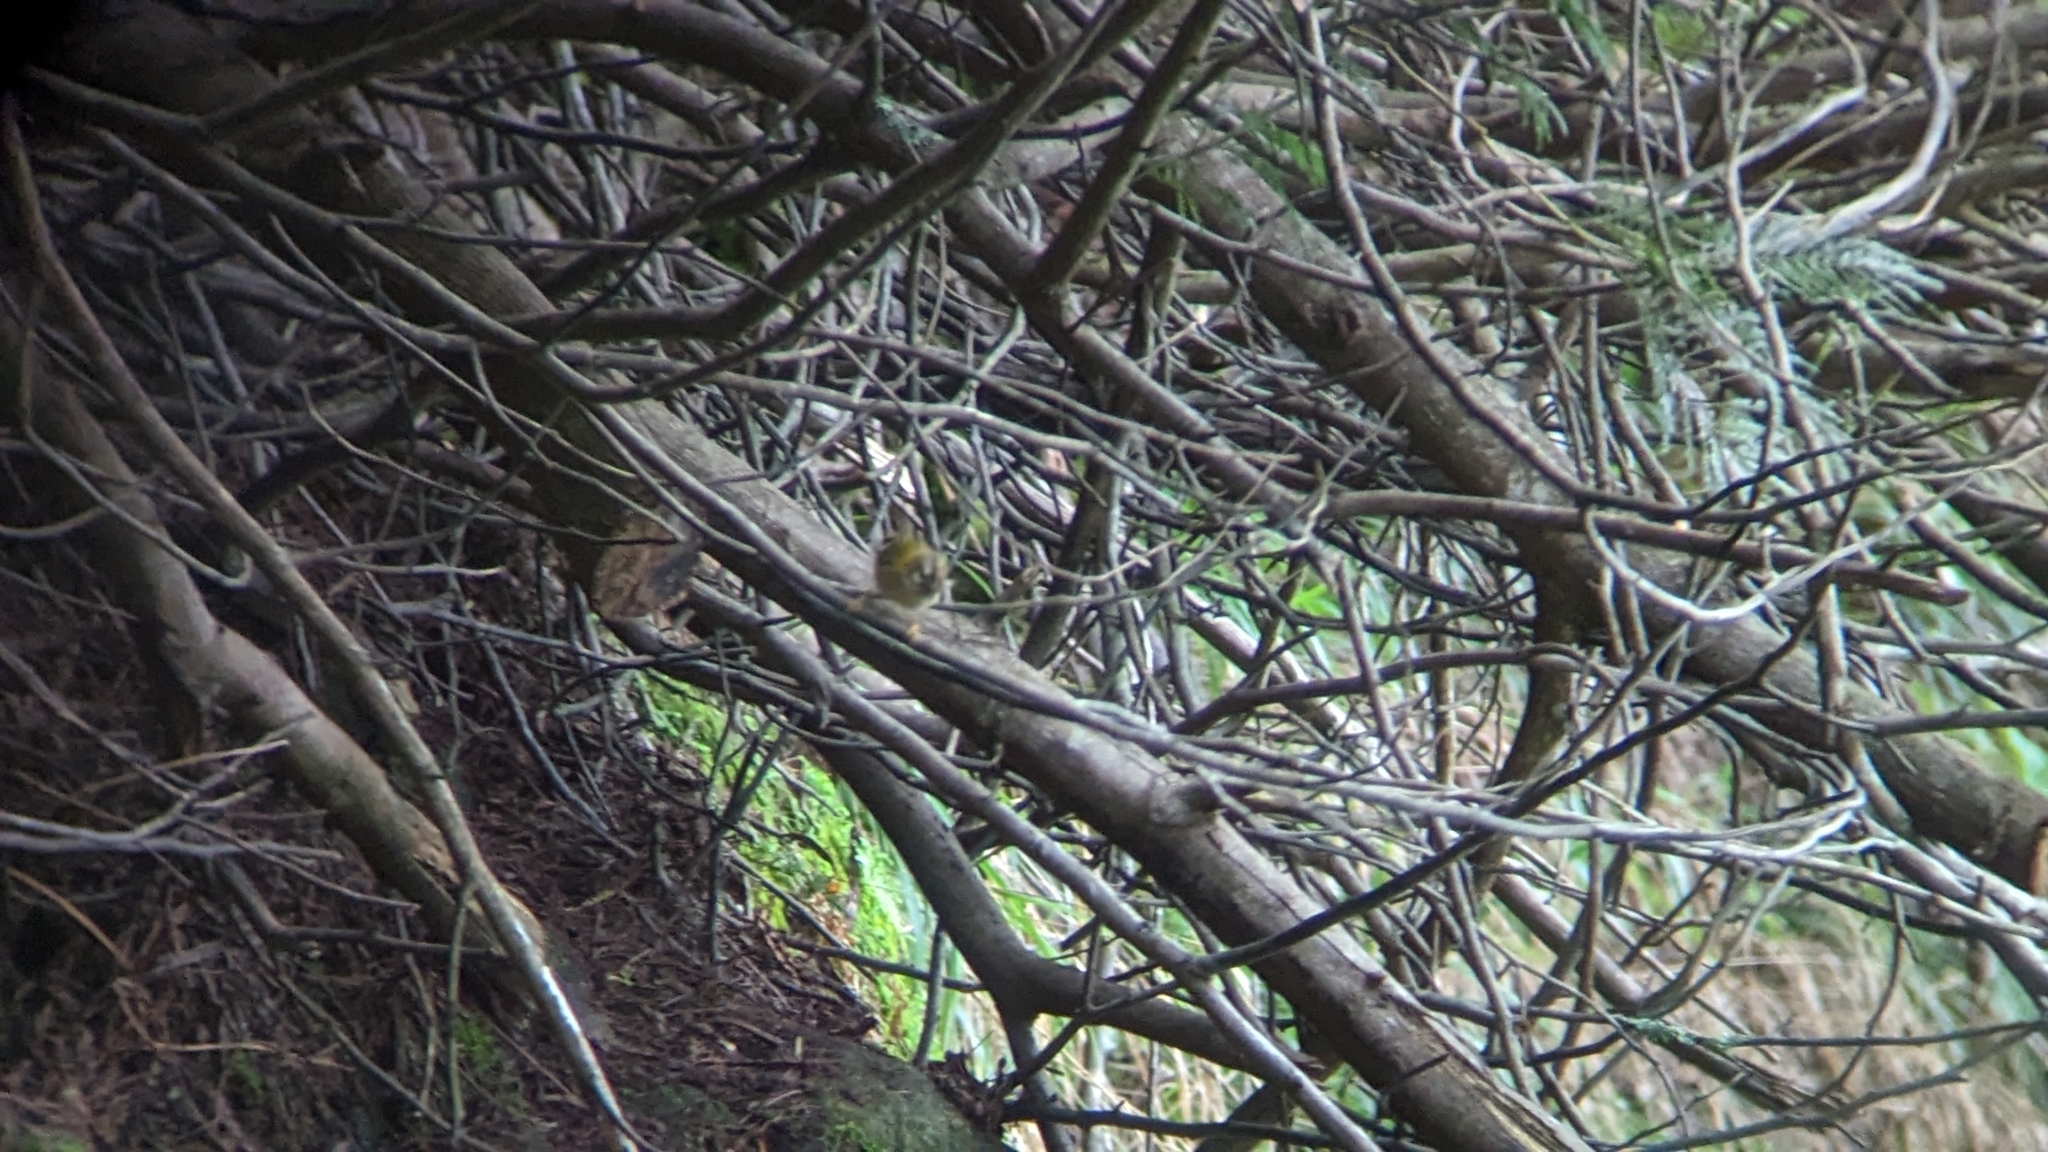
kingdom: Animalia
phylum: Chordata
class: Aves
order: Passeriformes
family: Regulidae
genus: Regulus
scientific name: Regulus madeirensis
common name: Madeira firecrest
